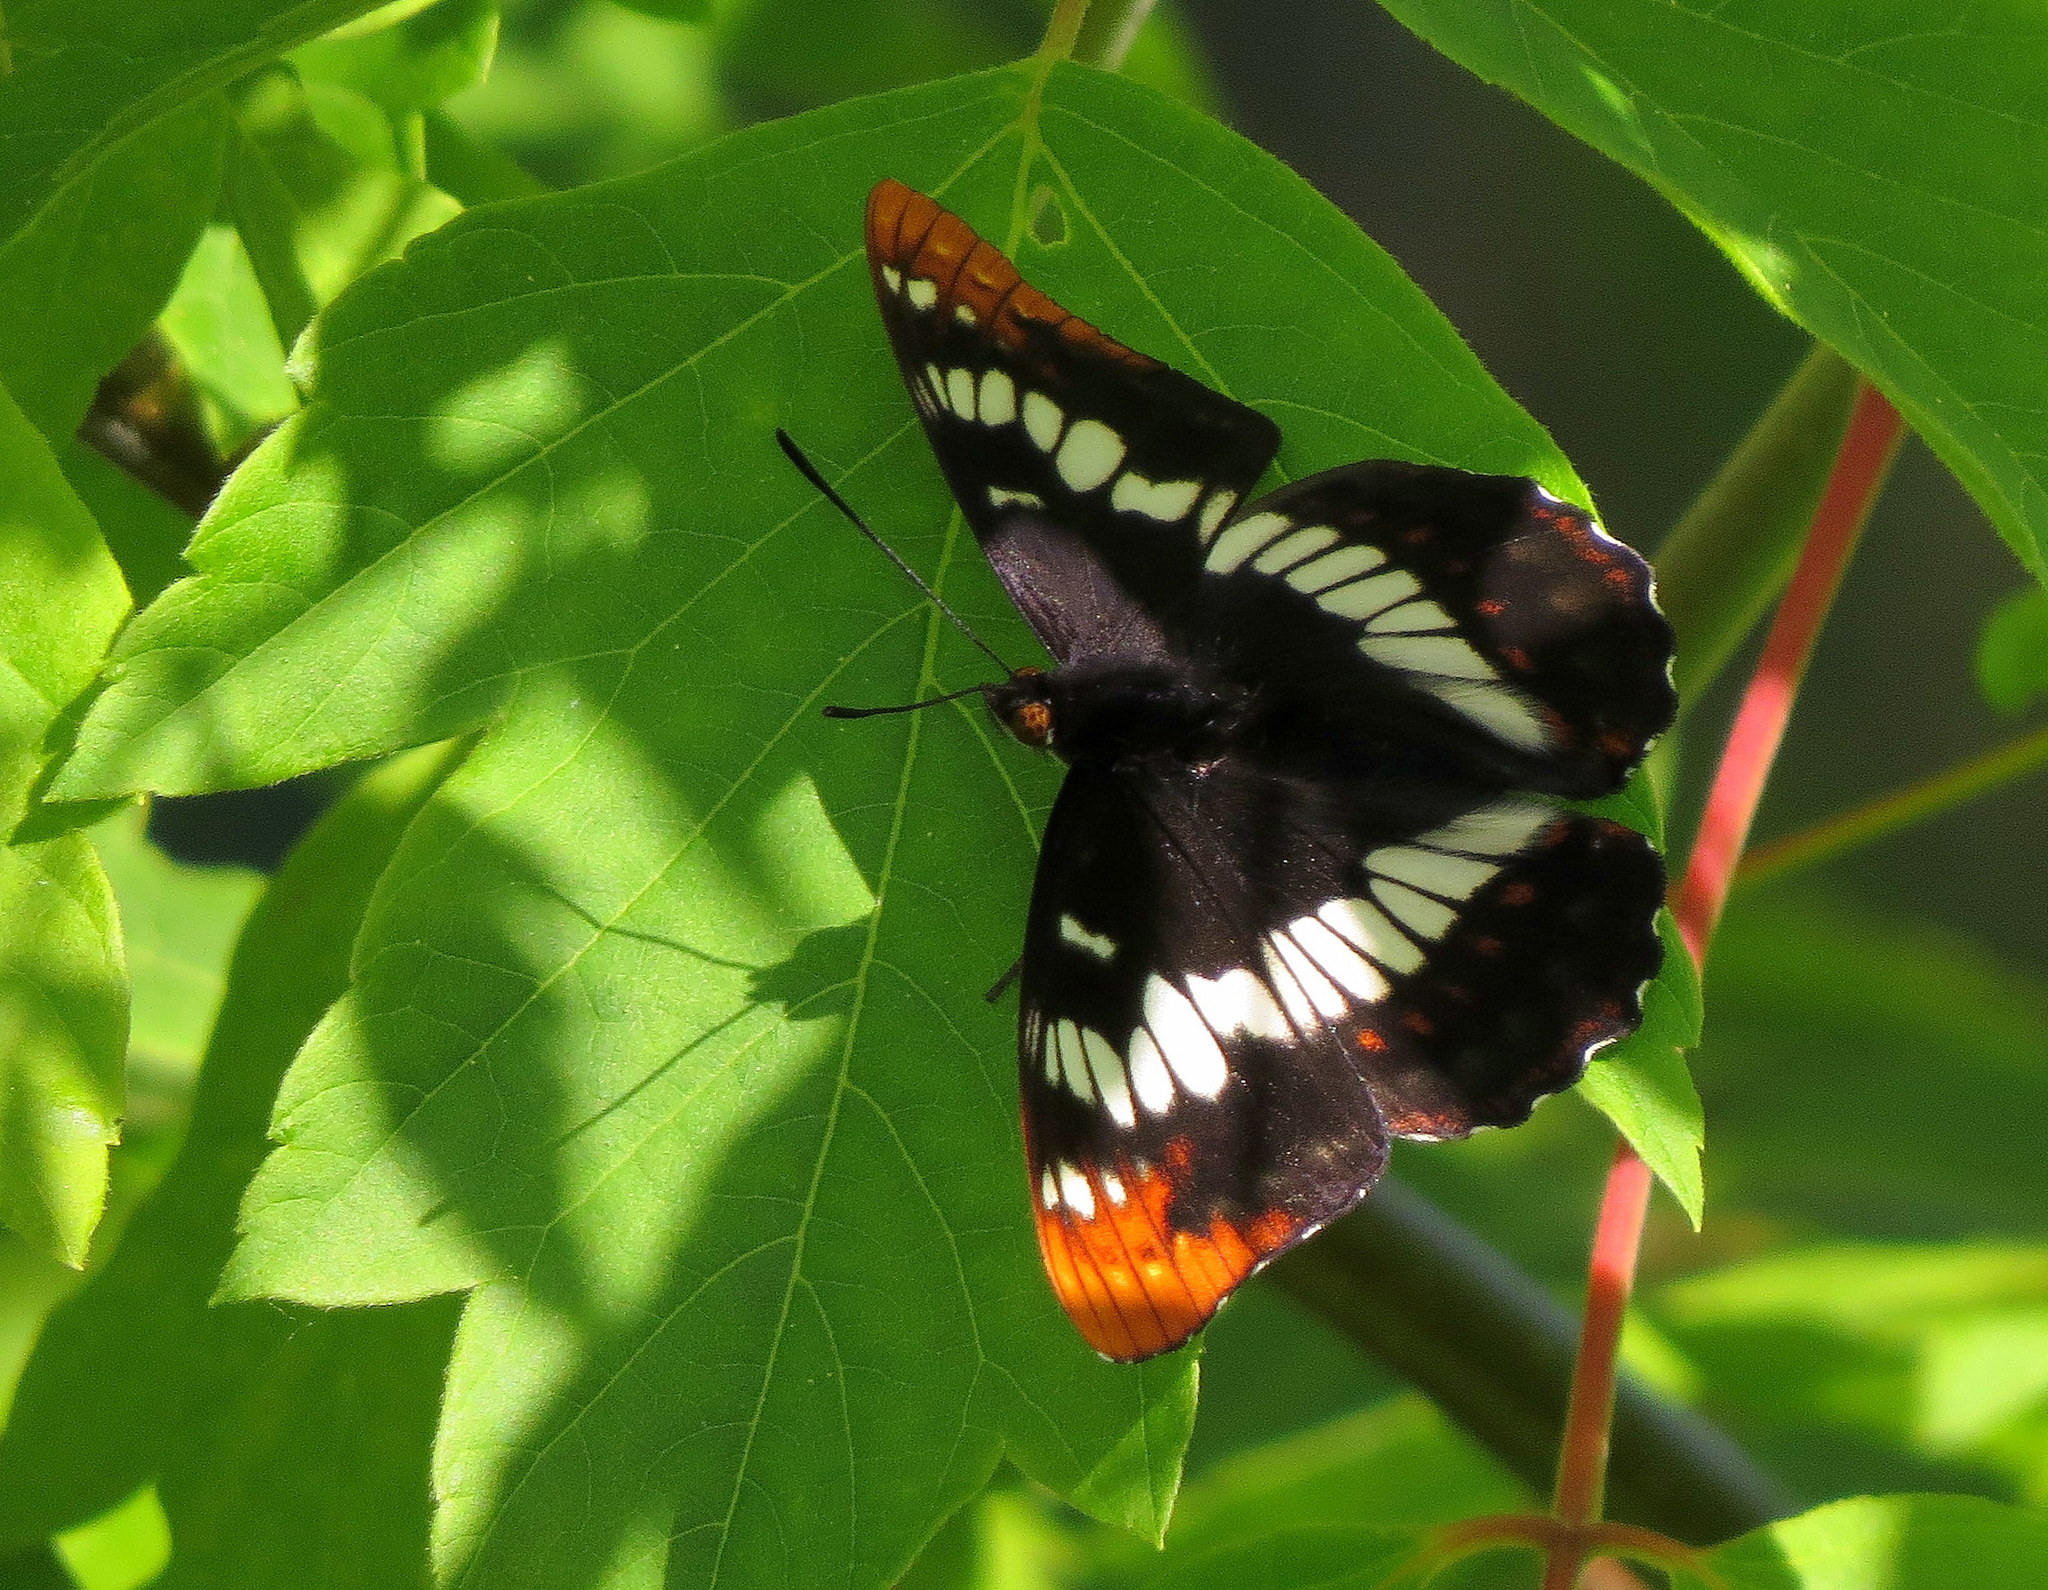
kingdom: Animalia
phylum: Arthropoda
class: Insecta
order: Lepidoptera
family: Nymphalidae
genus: Limenitis
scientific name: Limenitis lorquini
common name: Lorquin's admiral
